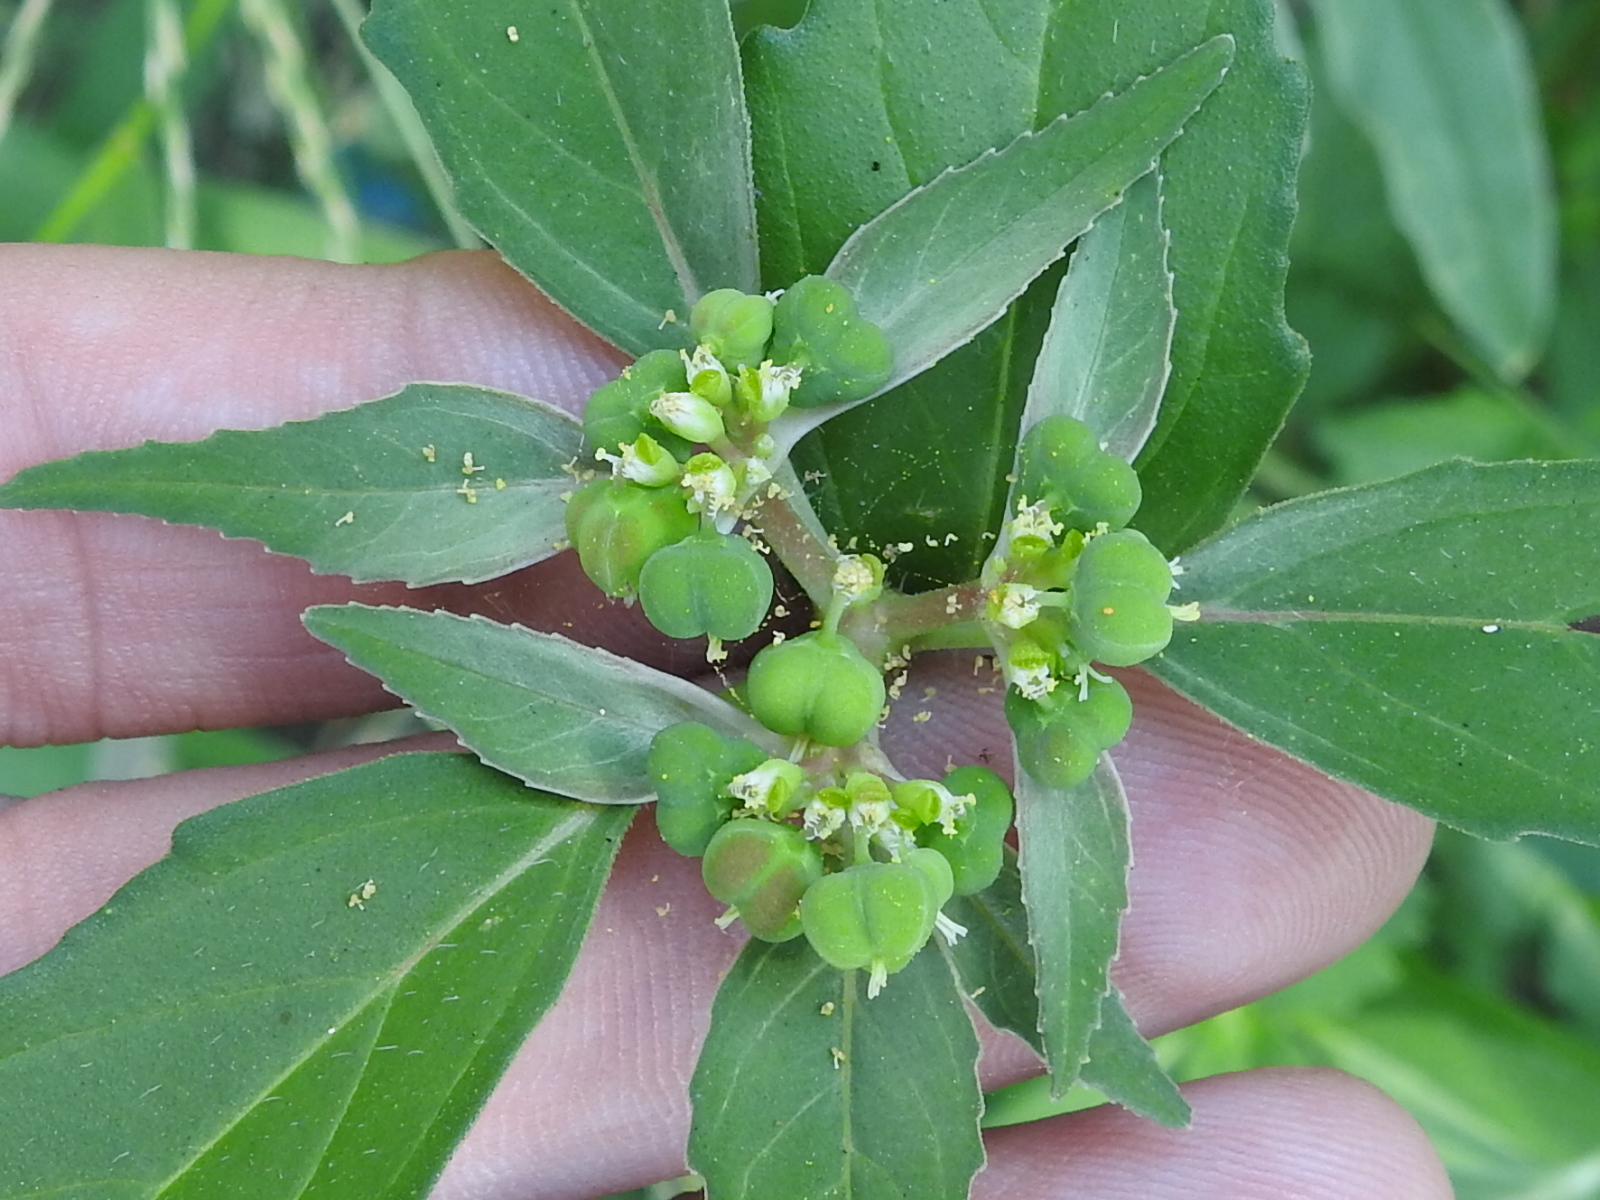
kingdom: Plantae
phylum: Tracheophyta
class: Magnoliopsida
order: Malpighiales
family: Euphorbiaceae
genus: Euphorbia
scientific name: Euphorbia dentata
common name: Dentate spurge
